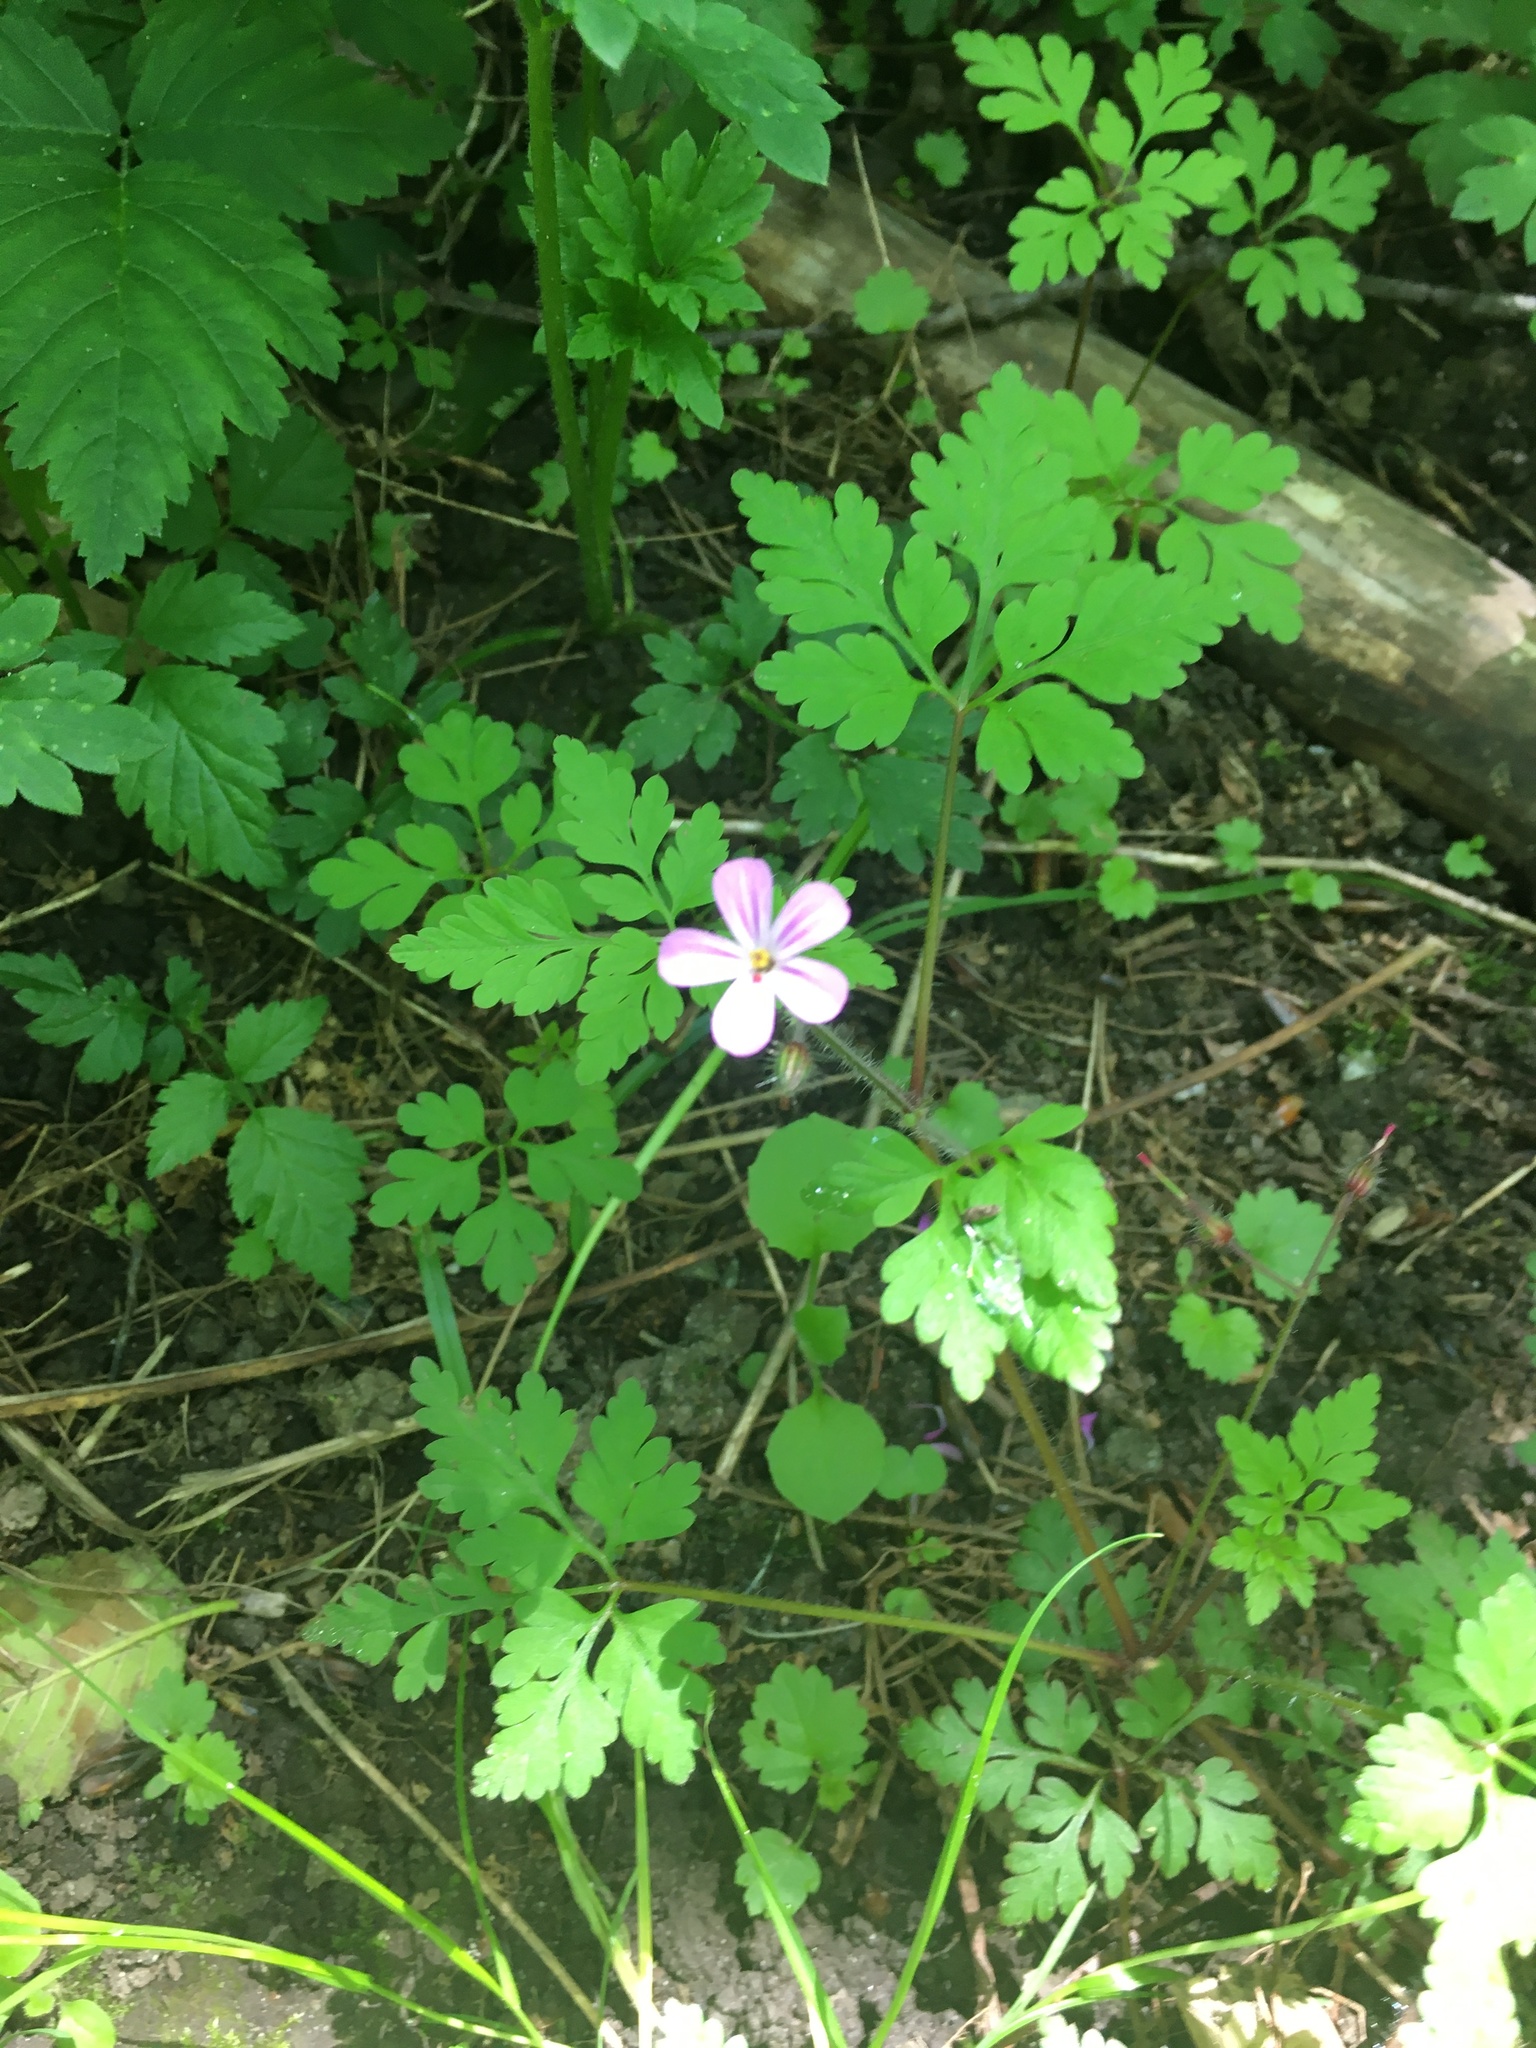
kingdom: Plantae
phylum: Tracheophyta
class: Magnoliopsida
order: Geraniales
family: Geraniaceae
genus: Geranium
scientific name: Geranium robertianum
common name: Herb-robert
